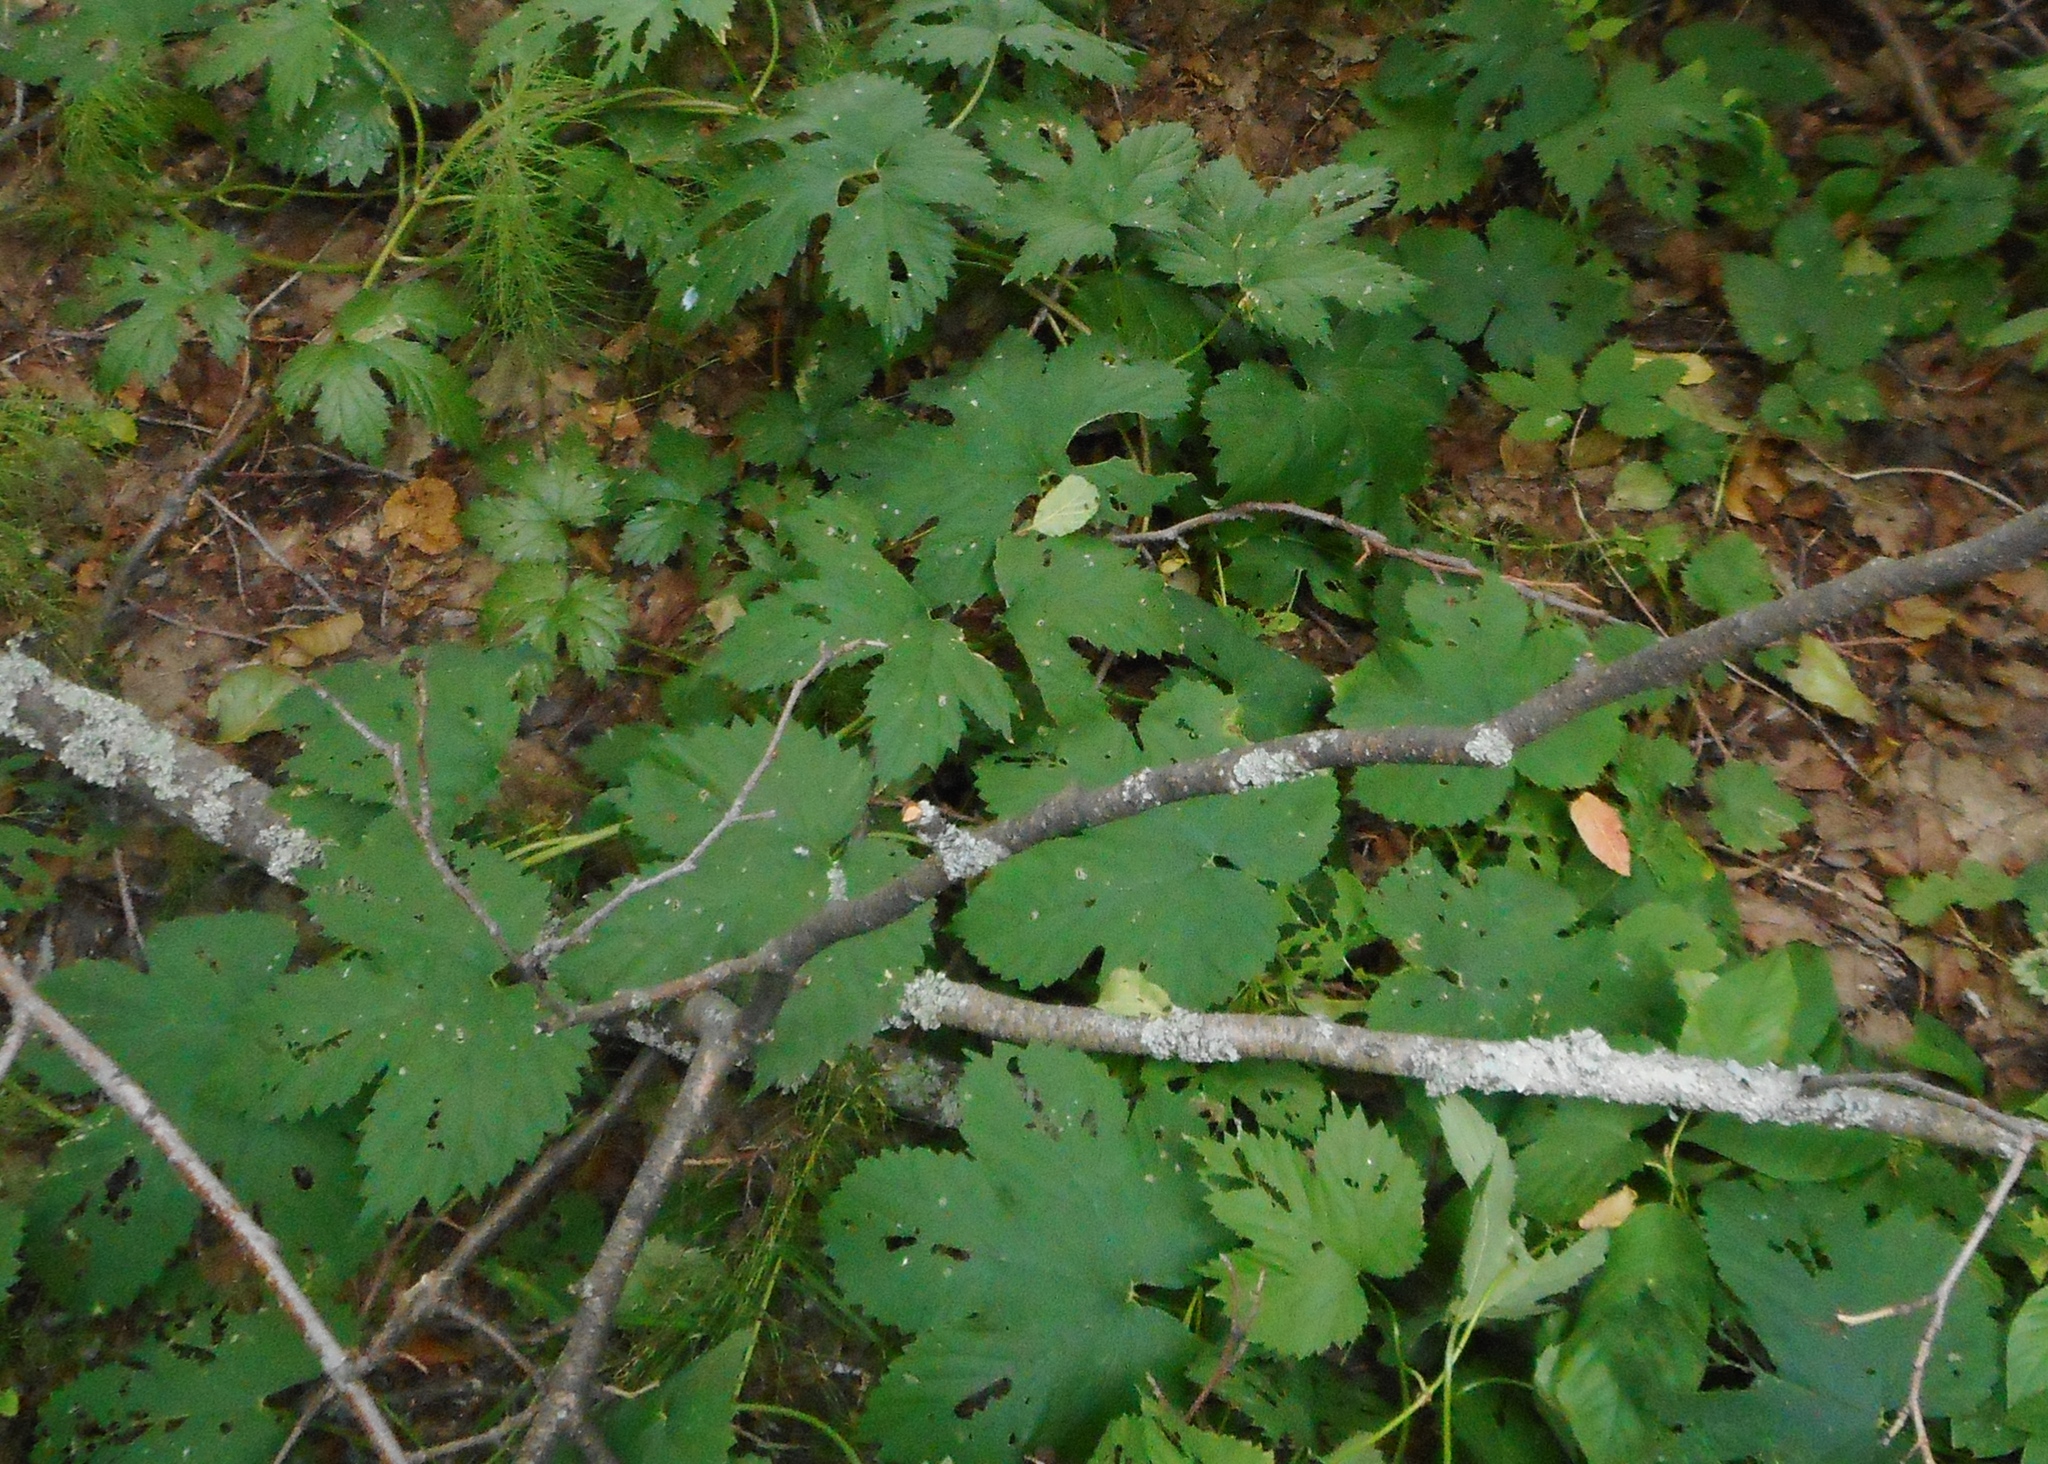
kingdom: Plantae
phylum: Tracheophyta
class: Magnoliopsida
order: Rosales
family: Cannabaceae
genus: Humulus
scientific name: Humulus lupulus
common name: Hop
